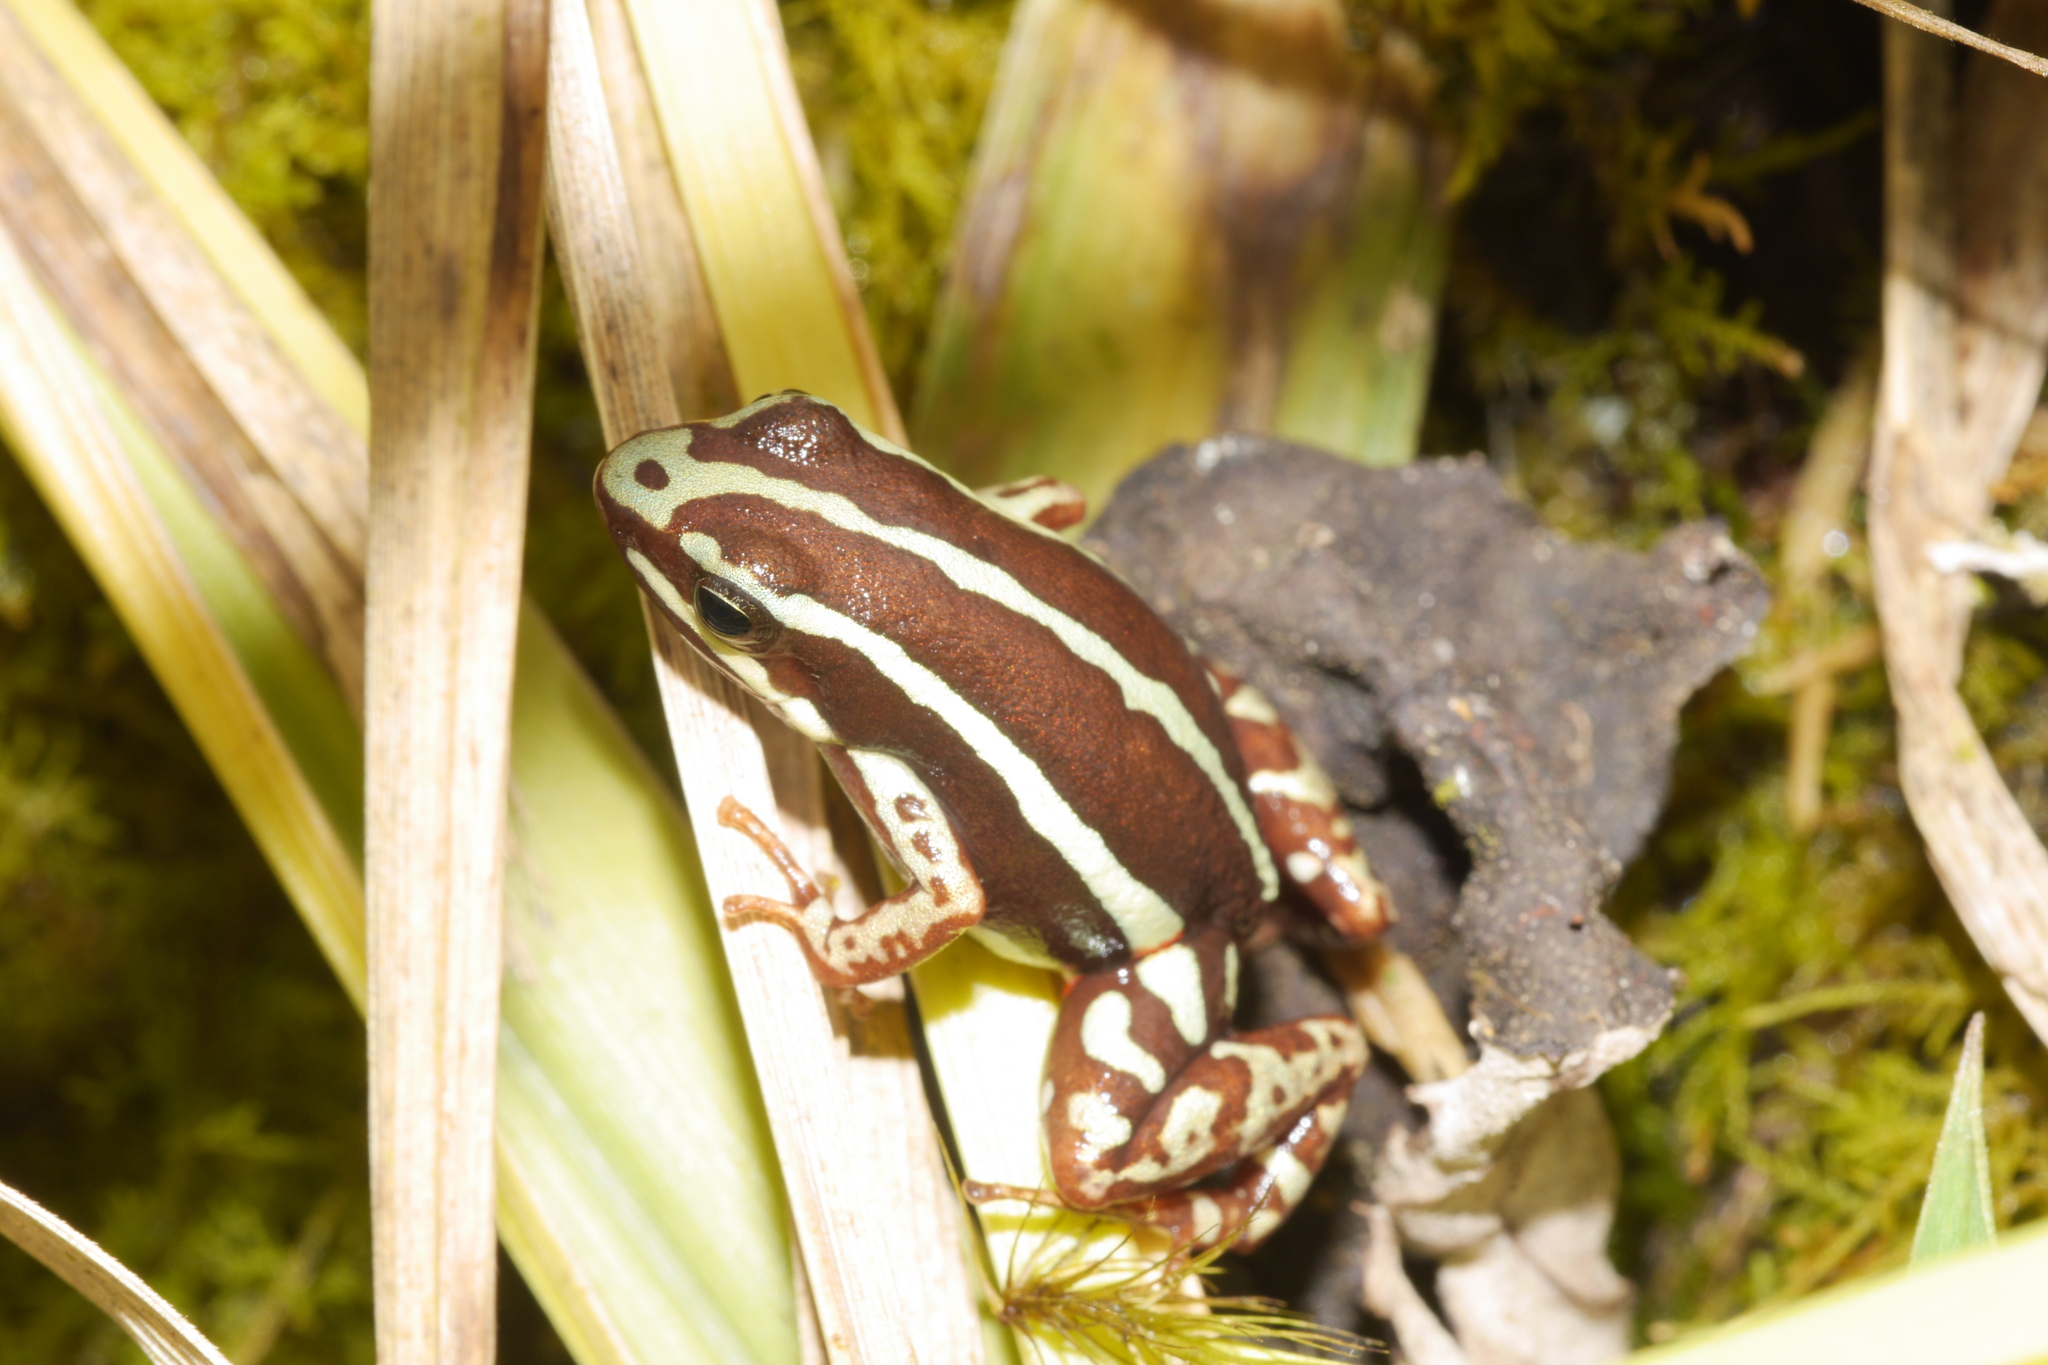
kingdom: Animalia
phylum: Chordata
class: Amphibia
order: Anura
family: Dendrobatidae
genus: Epipedobates
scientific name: Epipedobates anthonyi
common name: Anthony´s poison-arrow frog
